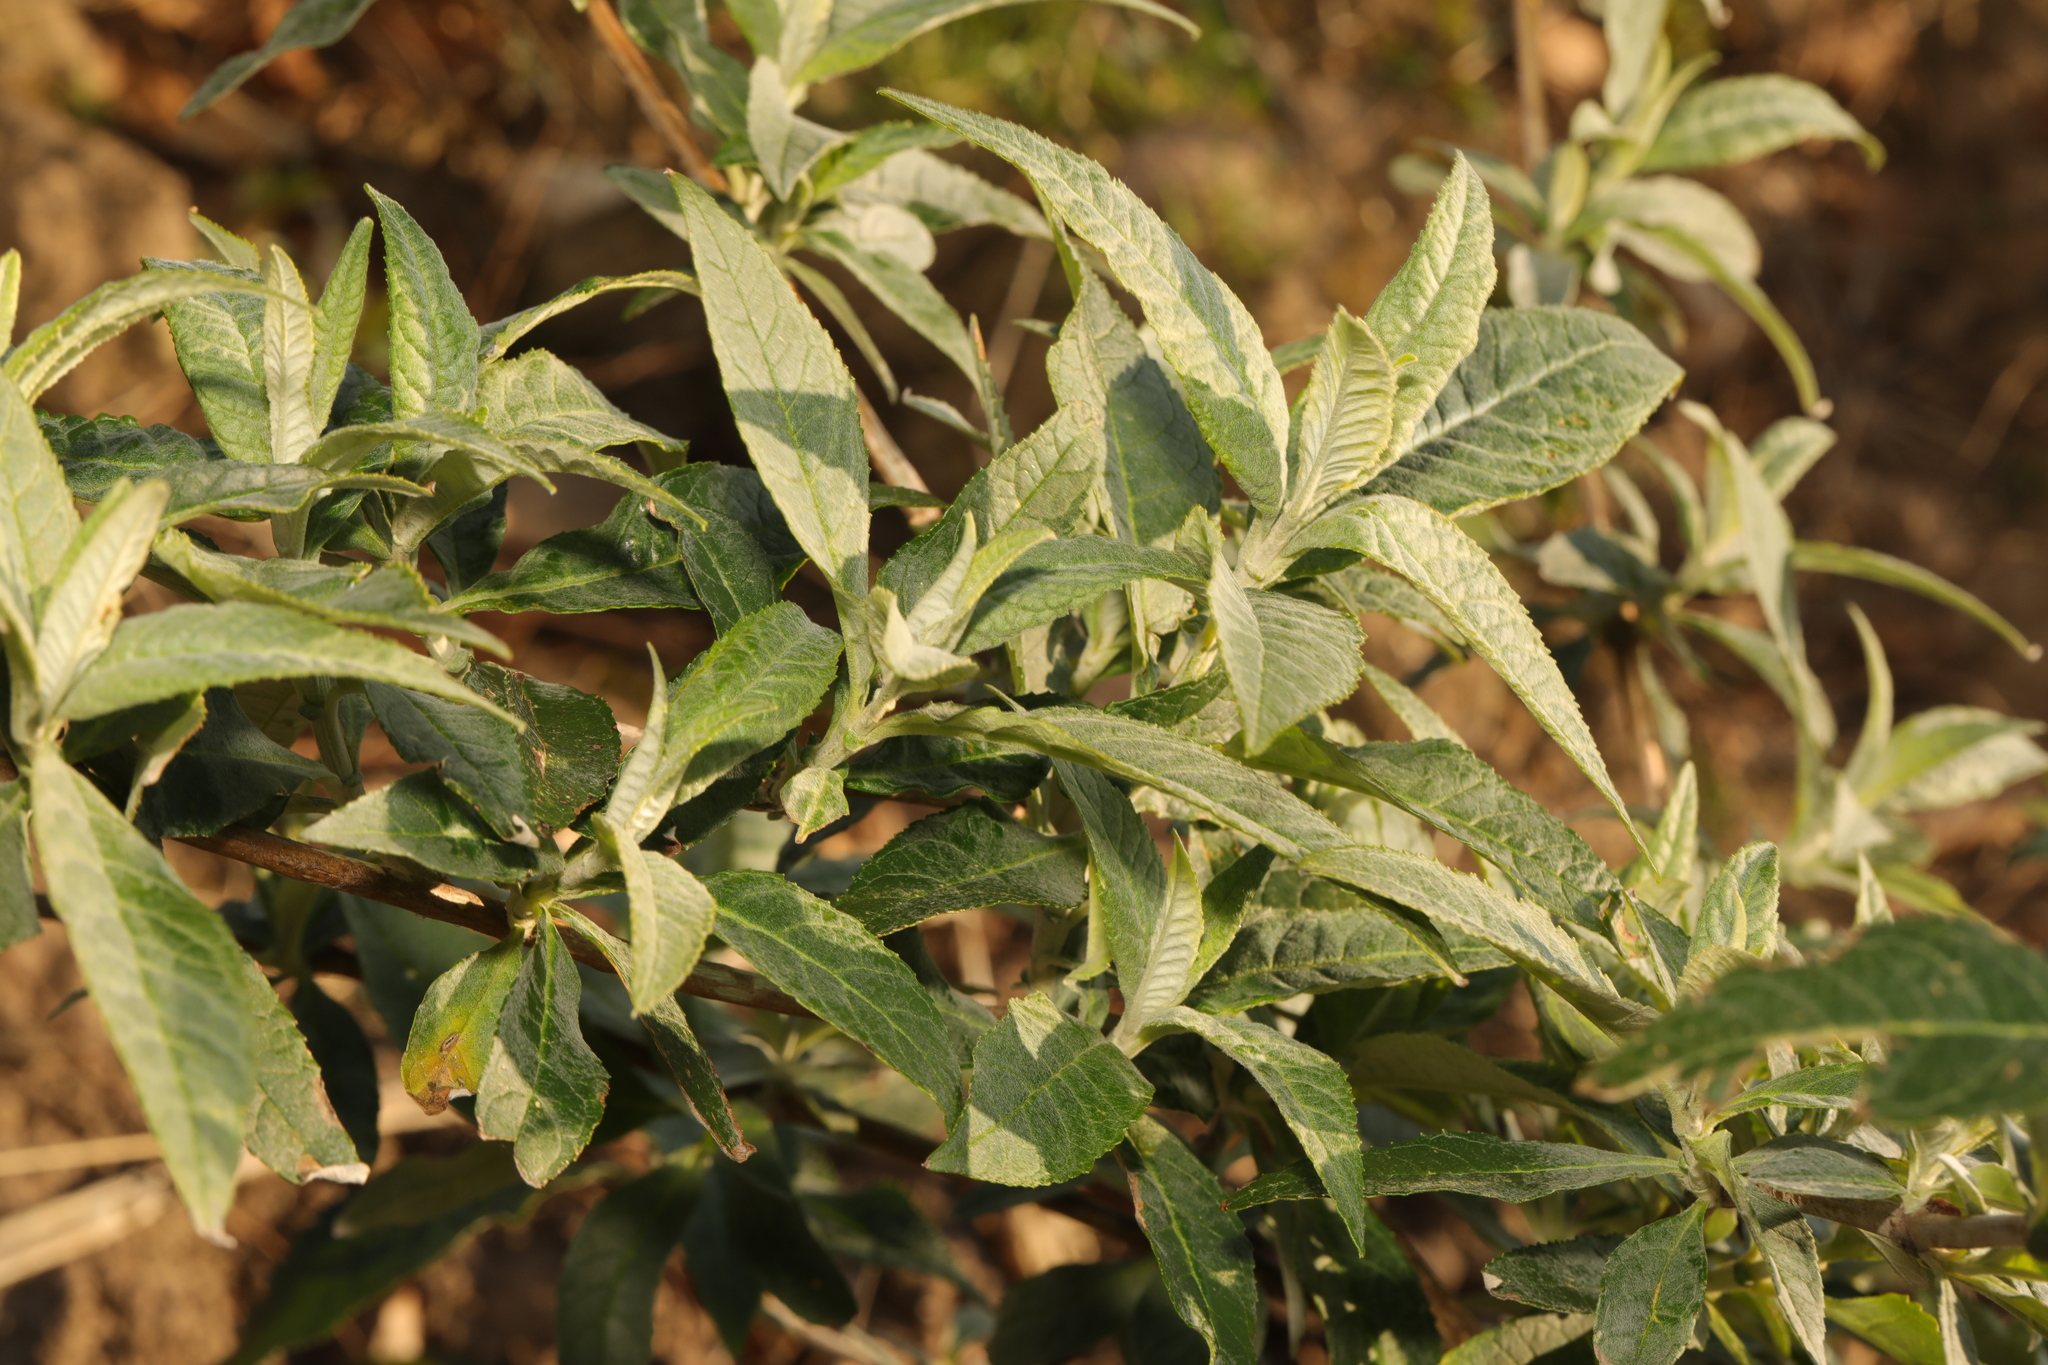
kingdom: Plantae
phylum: Tracheophyta
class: Magnoliopsida
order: Lamiales
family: Scrophulariaceae
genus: Buddleja
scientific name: Buddleja davidii
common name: Butterfly-bush
